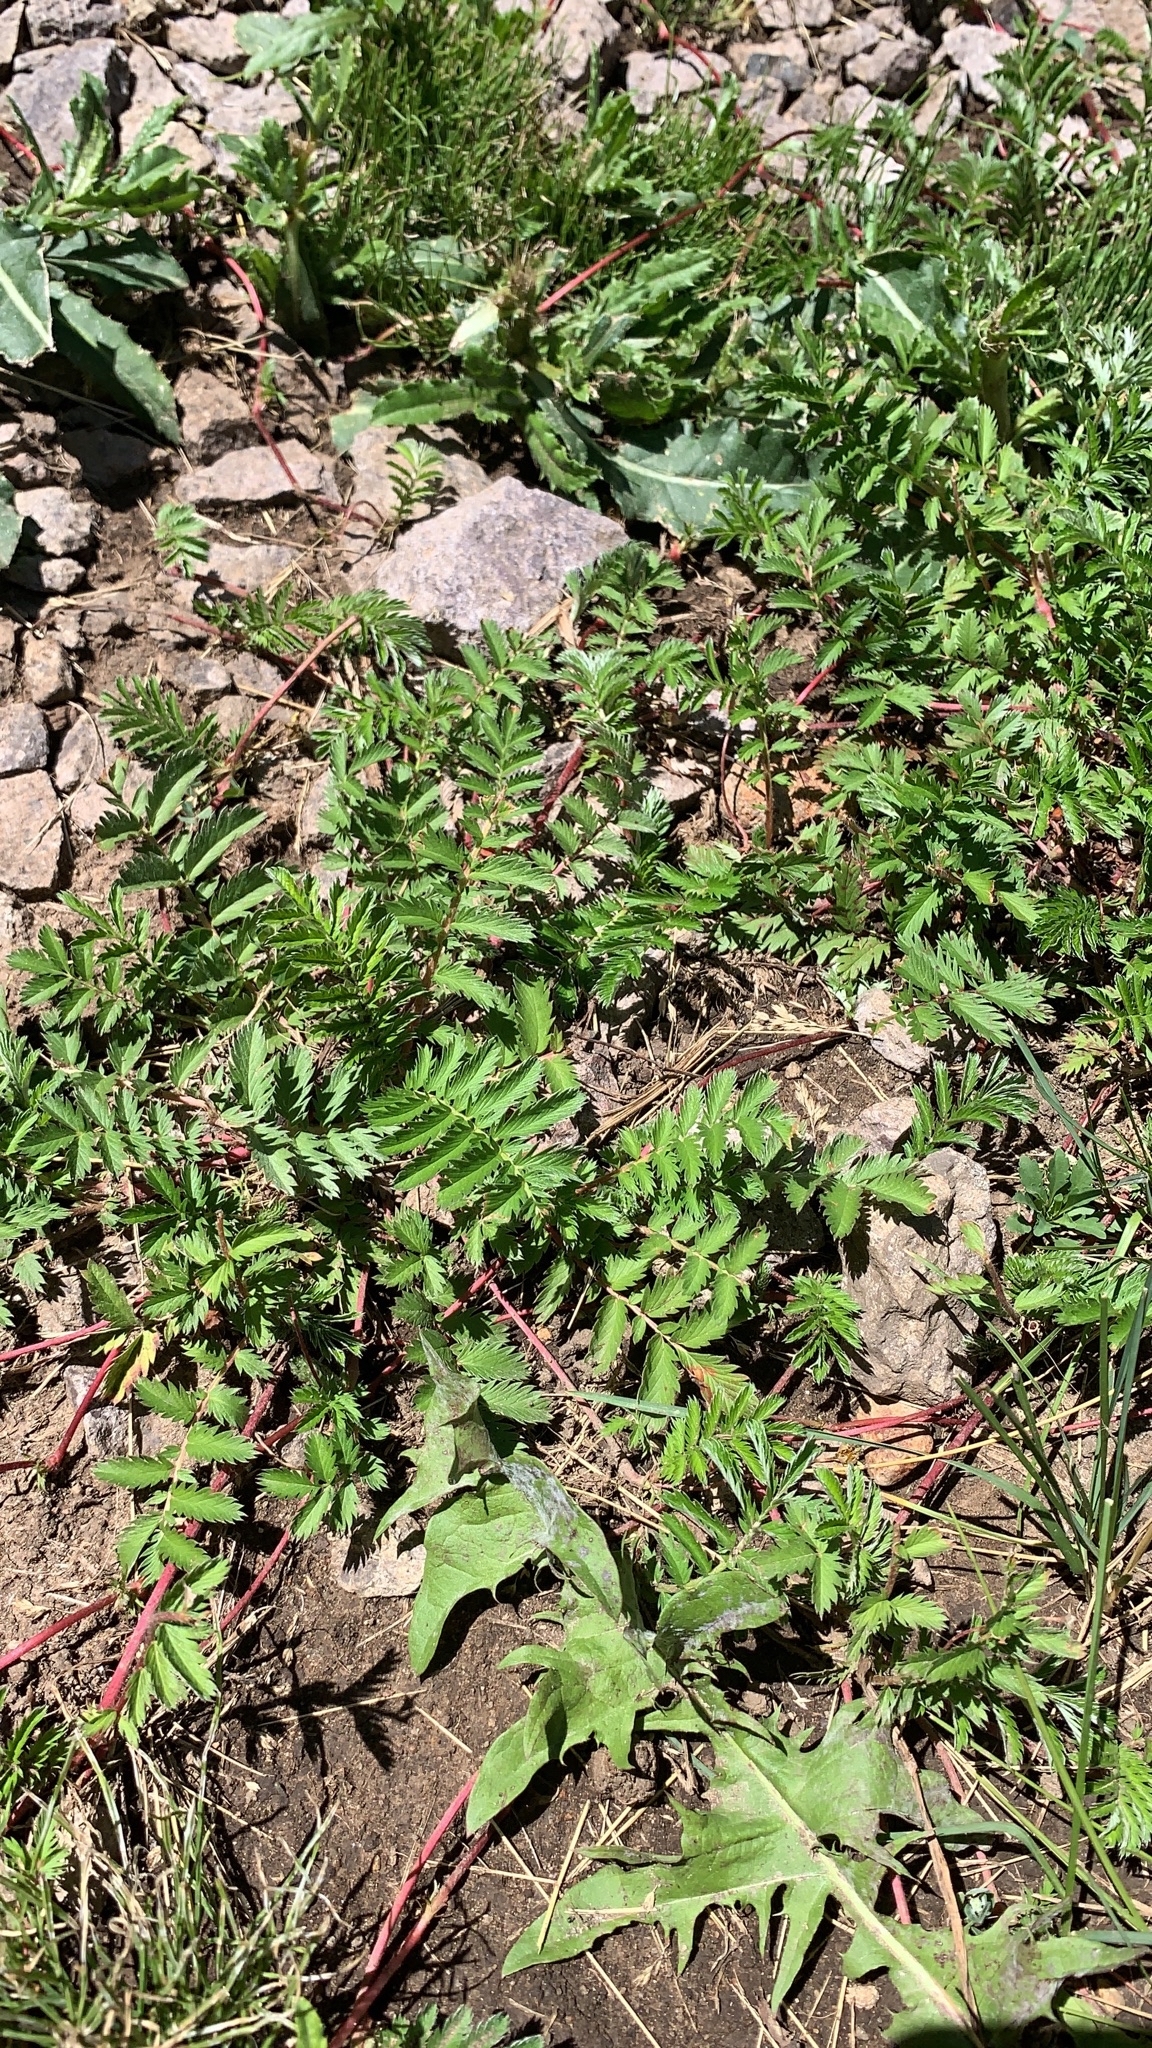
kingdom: Plantae
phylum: Tracheophyta
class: Magnoliopsida
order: Rosales
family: Rosaceae
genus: Argentina
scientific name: Argentina anserina
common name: Common silverweed
